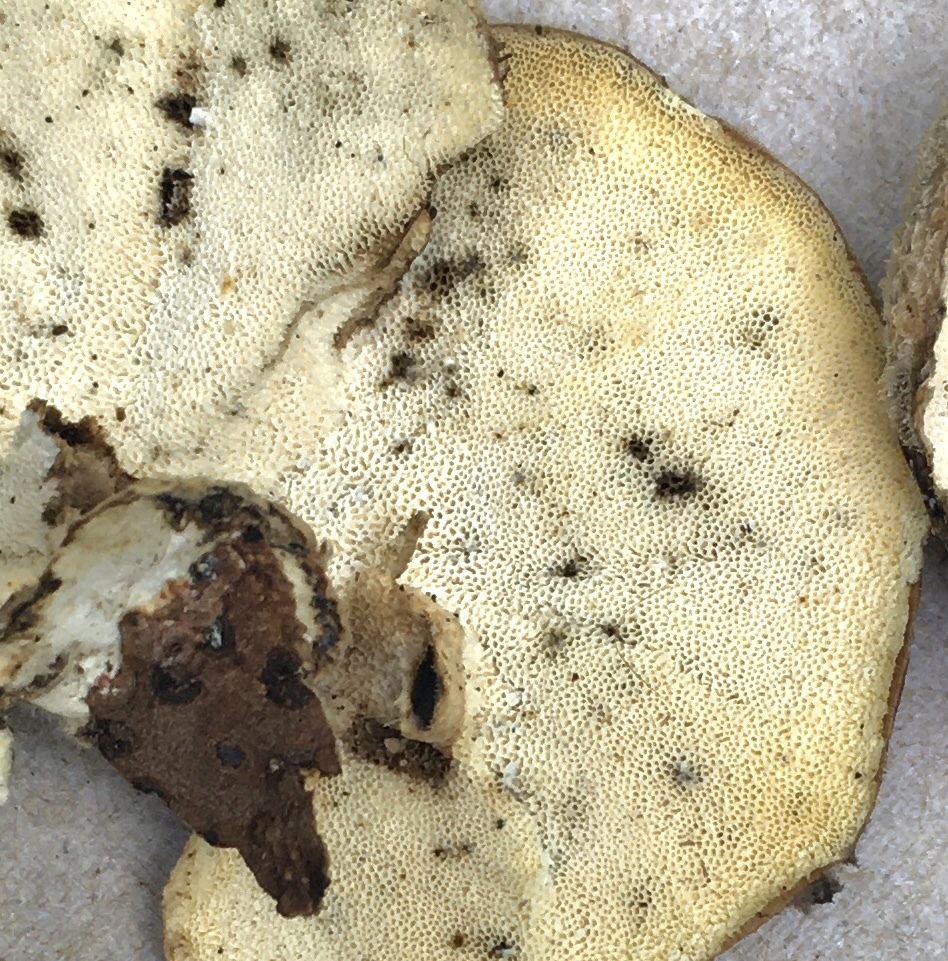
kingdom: Fungi
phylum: Basidiomycota
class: Agaricomycetes
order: Polyporales
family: Polyporaceae
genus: Trametes
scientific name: Trametes versicolor
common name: Turkeytail
